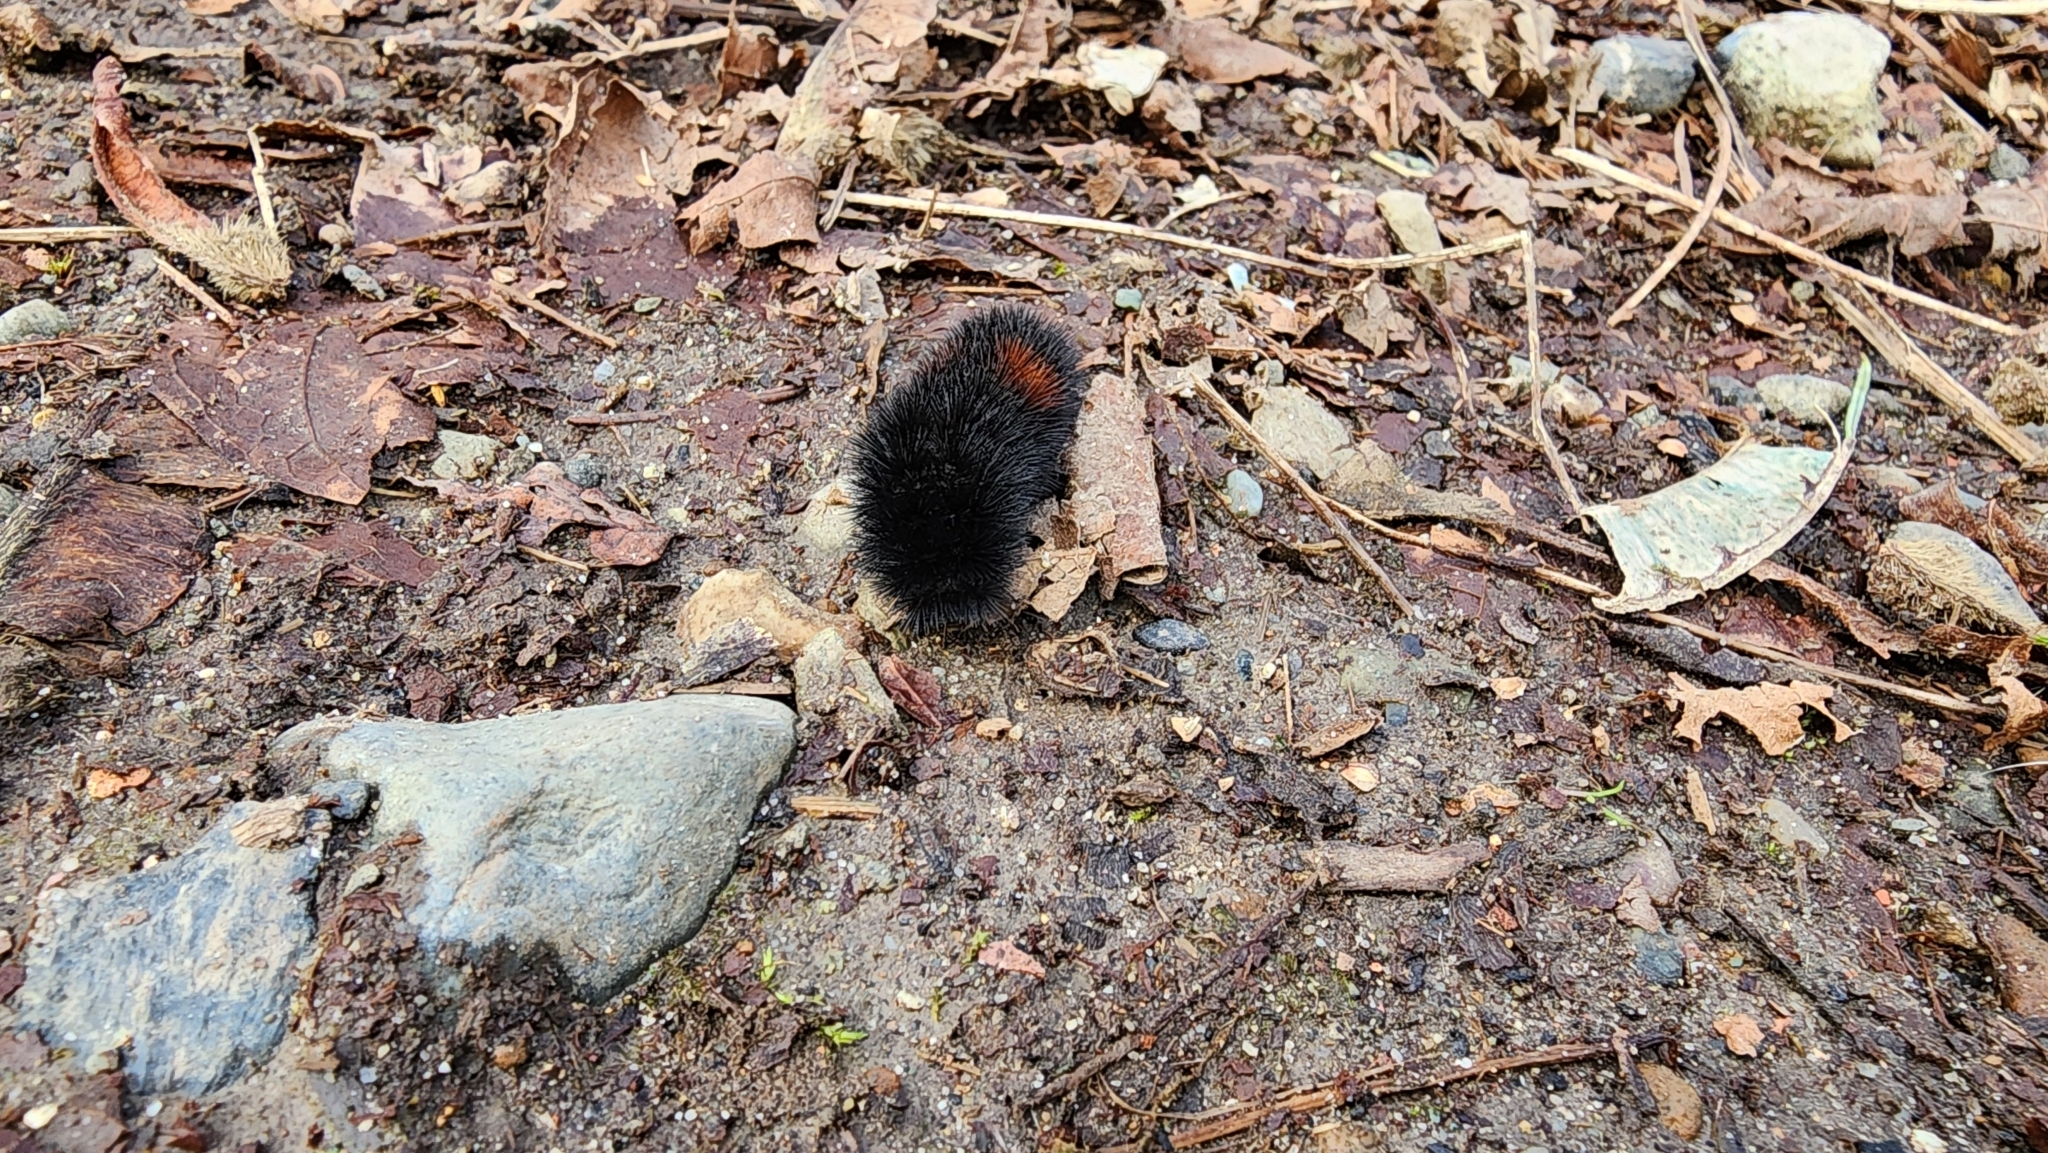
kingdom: Animalia
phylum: Arthropoda
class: Insecta
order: Lepidoptera
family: Erebidae
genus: Pyrrharctia
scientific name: Pyrrharctia isabella
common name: Isabella tiger moth
